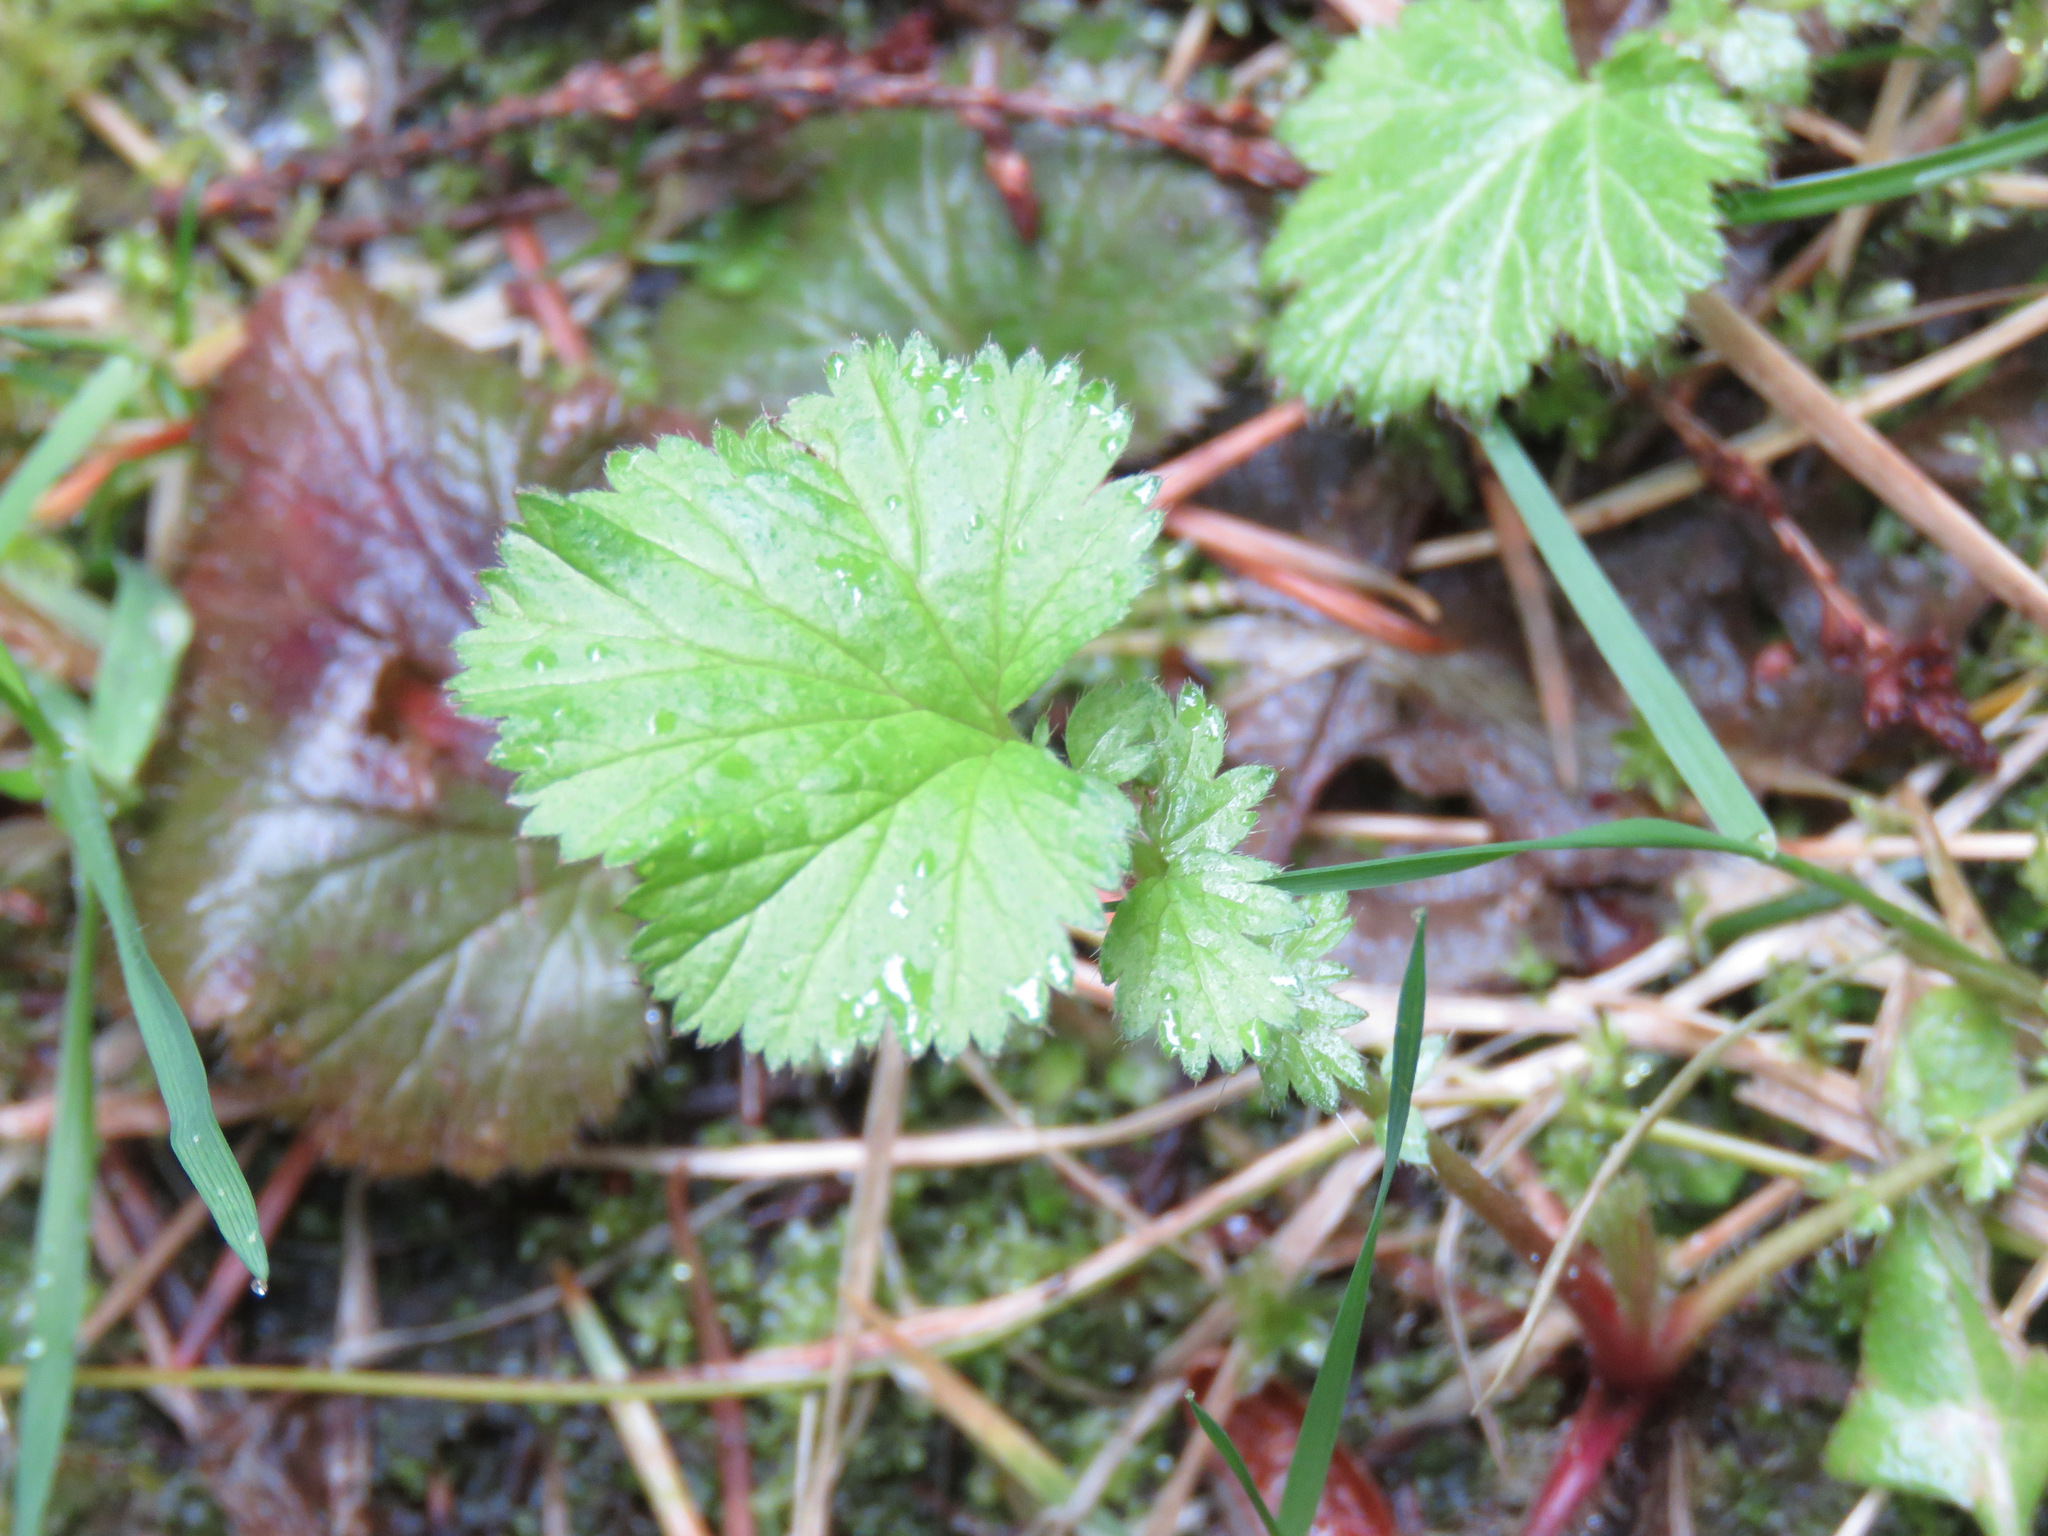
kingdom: Plantae
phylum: Tracheophyta
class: Magnoliopsida
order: Rosales
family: Rosaceae
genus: Geum
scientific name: Geum macrophyllum
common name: Large-leaved avens
